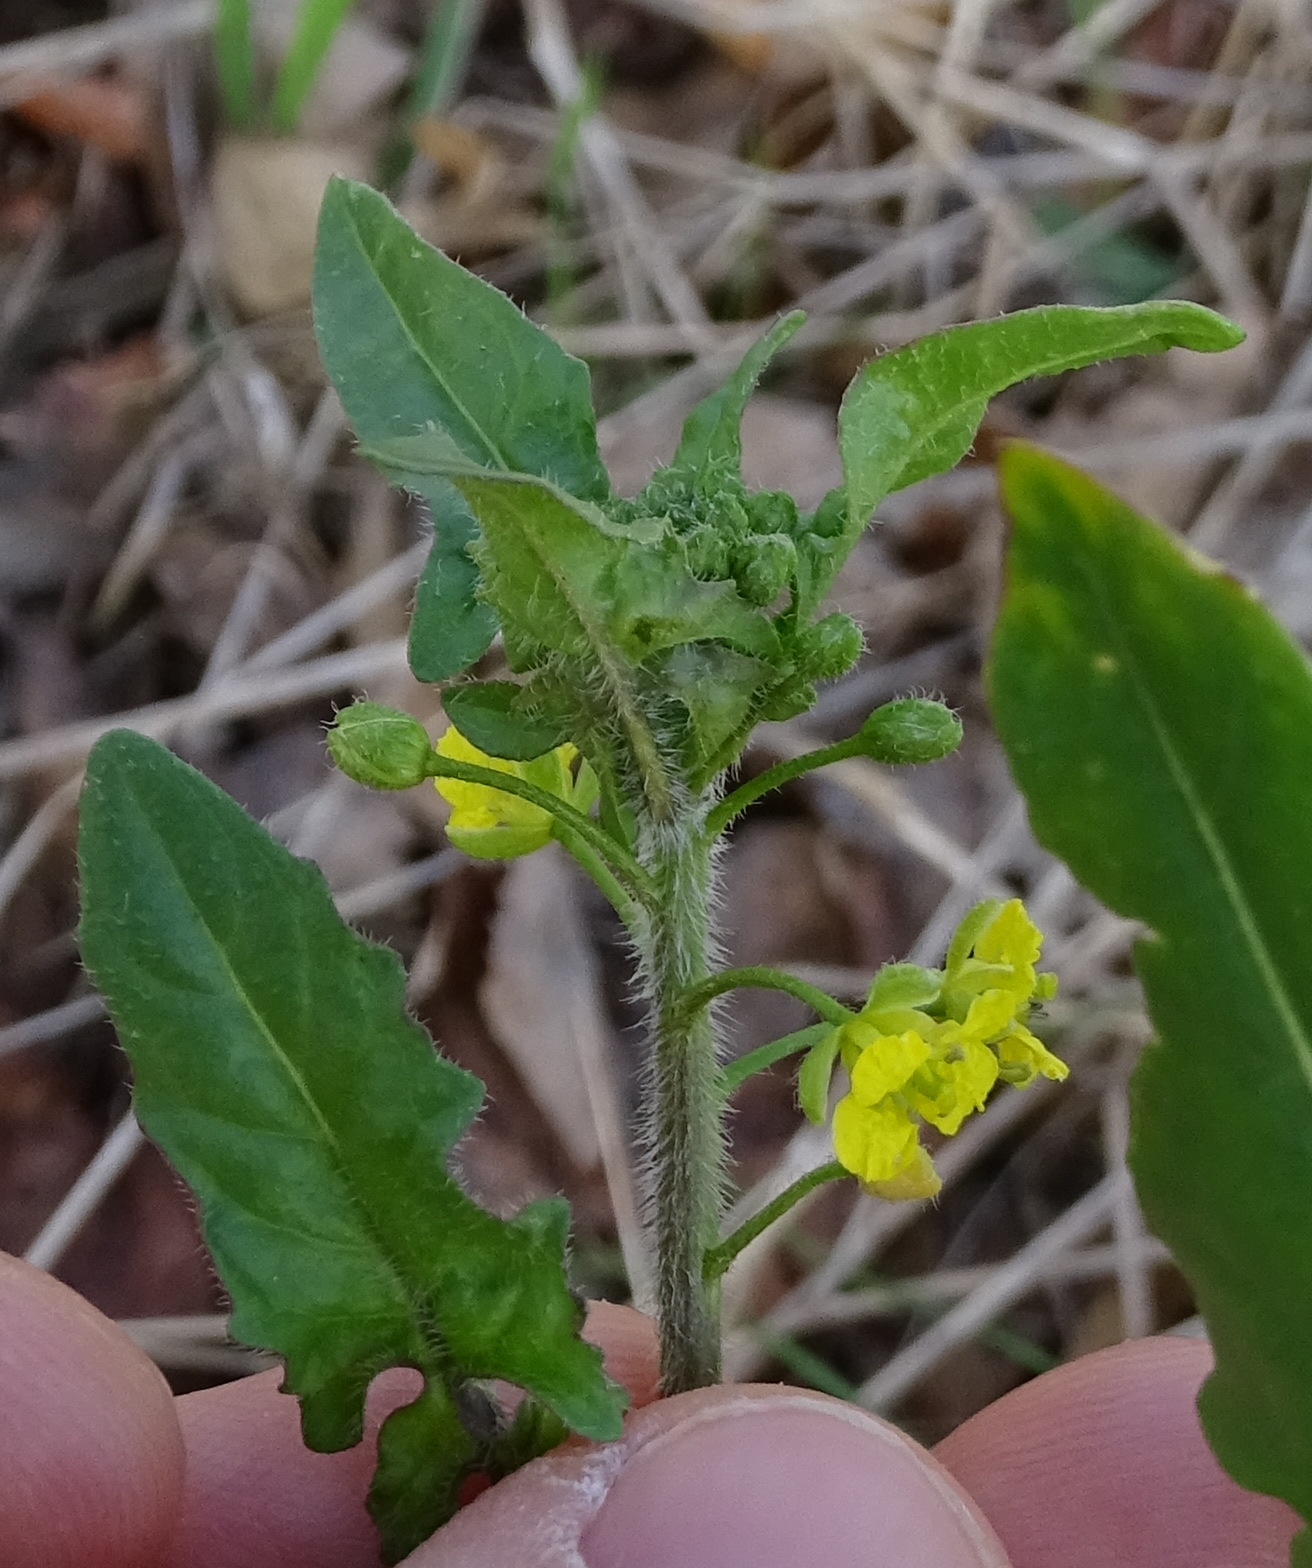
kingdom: Plantae
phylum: Tracheophyta
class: Magnoliopsida
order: Brassicales
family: Brassicaceae
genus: Sisymbrium
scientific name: Sisymbrium loeselii
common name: False london-rocket
